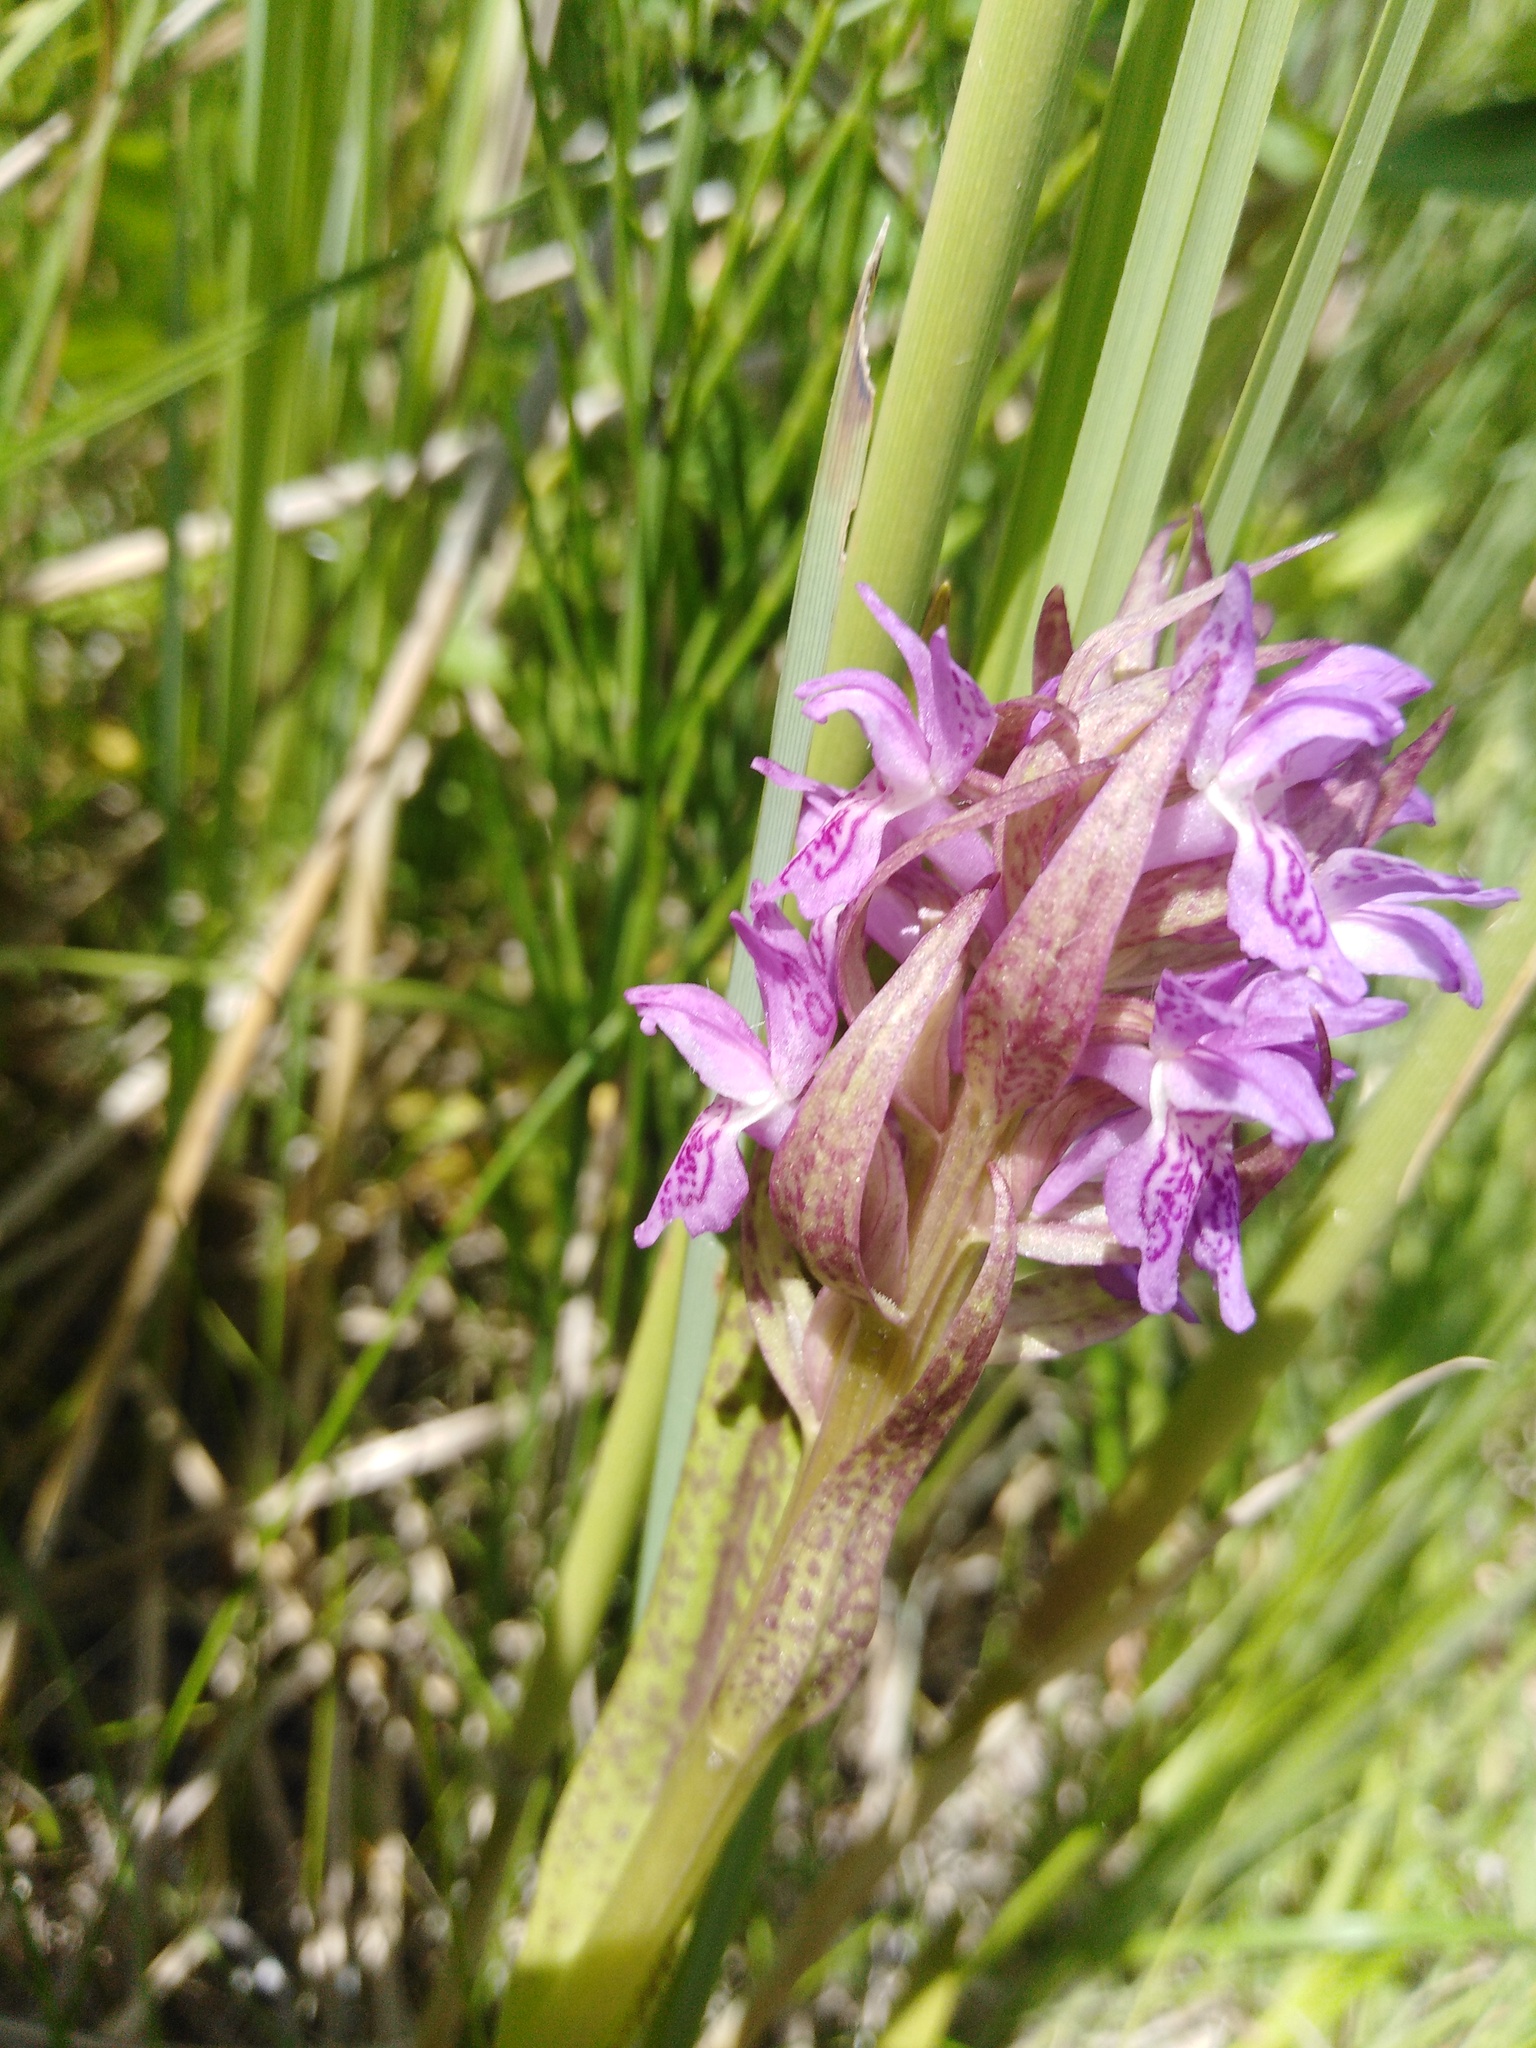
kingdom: Plantae
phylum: Tracheophyta
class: Liliopsida
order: Asparagales
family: Orchidaceae
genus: Dactylorhiza
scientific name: Dactylorhiza incarnata
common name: Early marsh-orchid
